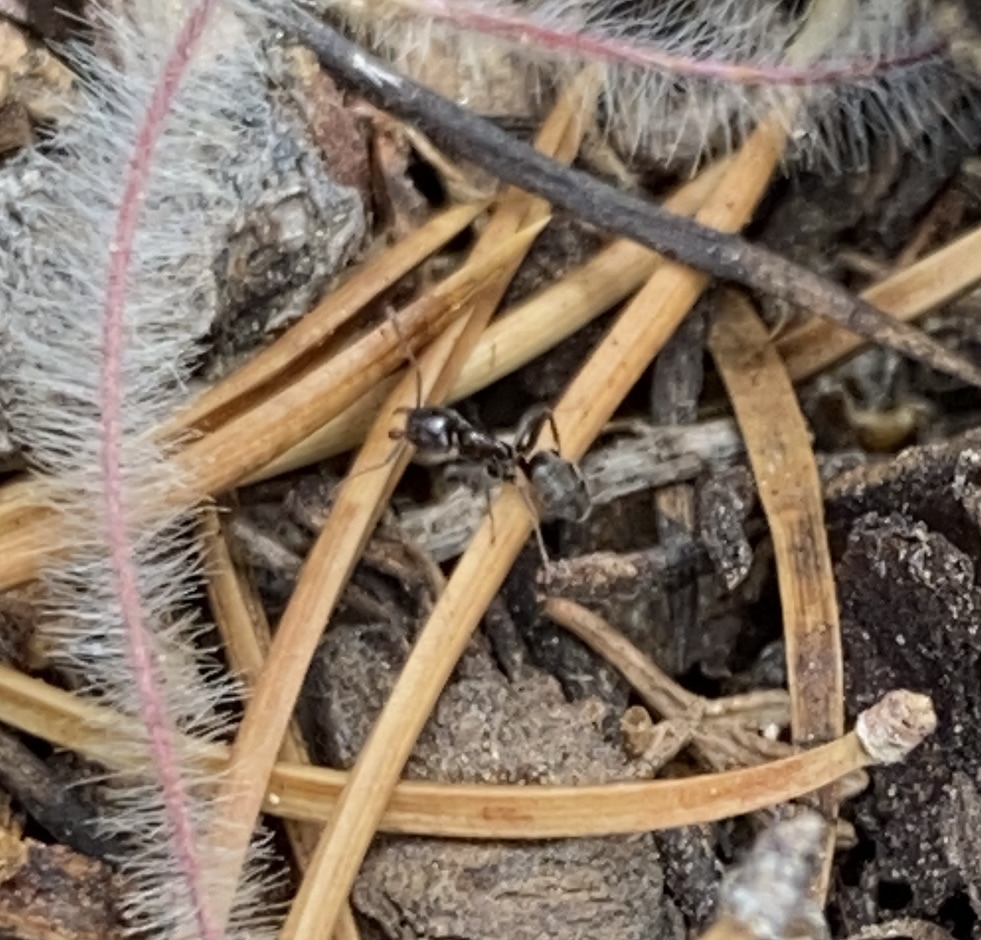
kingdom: Animalia
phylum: Arthropoda
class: Insecta
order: Hymenoptera
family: Formicidae
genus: Liometopum
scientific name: Liometopum luctuosum
